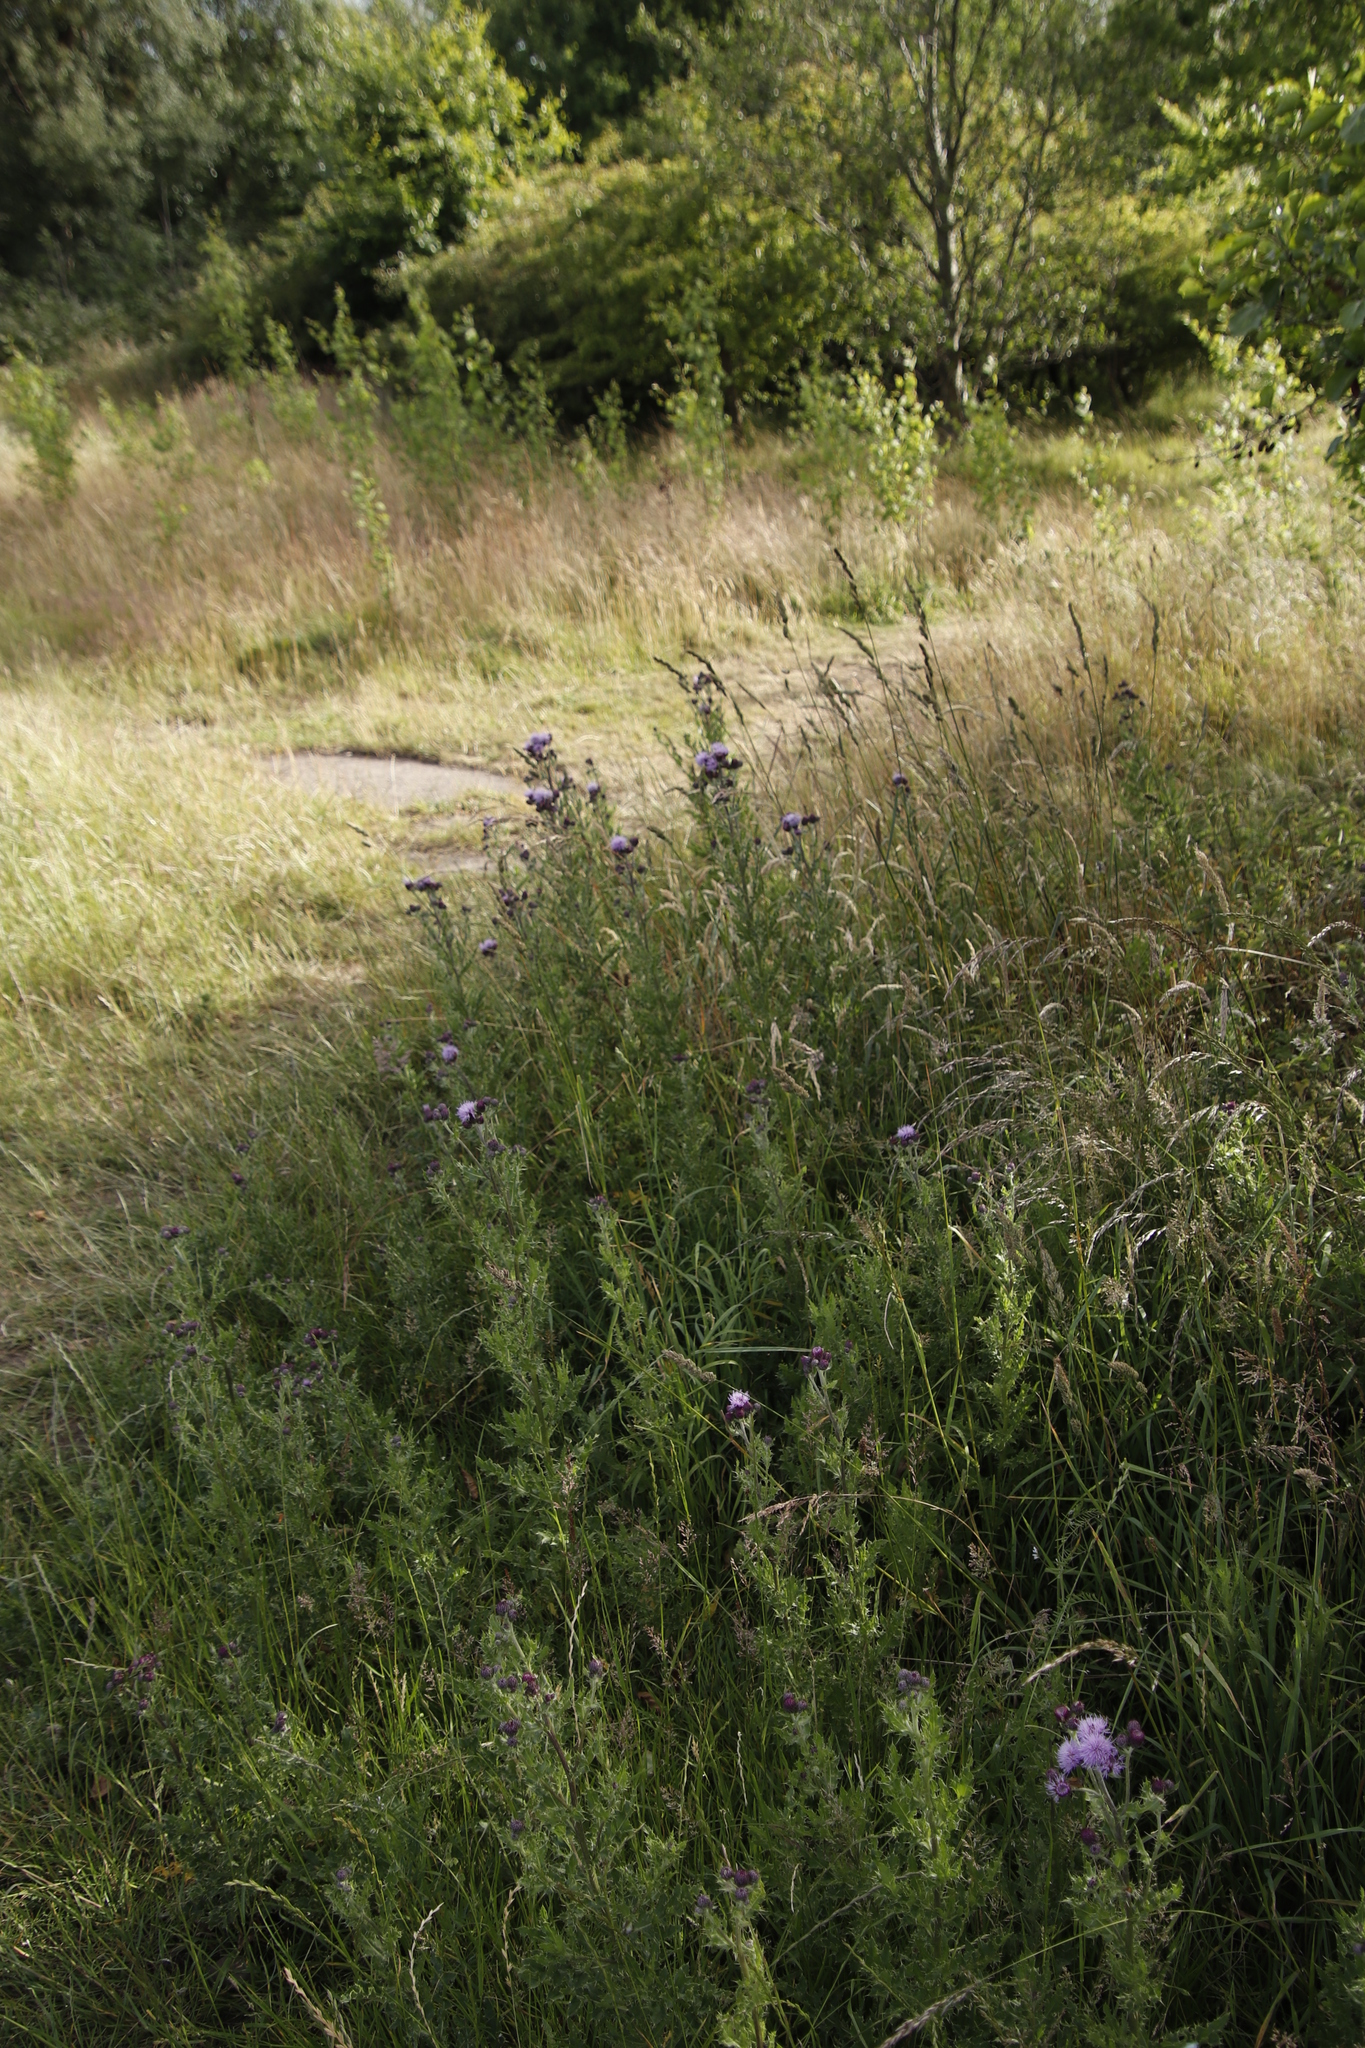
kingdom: Plantae
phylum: Tracheophyta
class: Magnoliopsida
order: Asterales
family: Asteraceae
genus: Cirsium
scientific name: Cirsium arvense
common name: Creeping thistle
